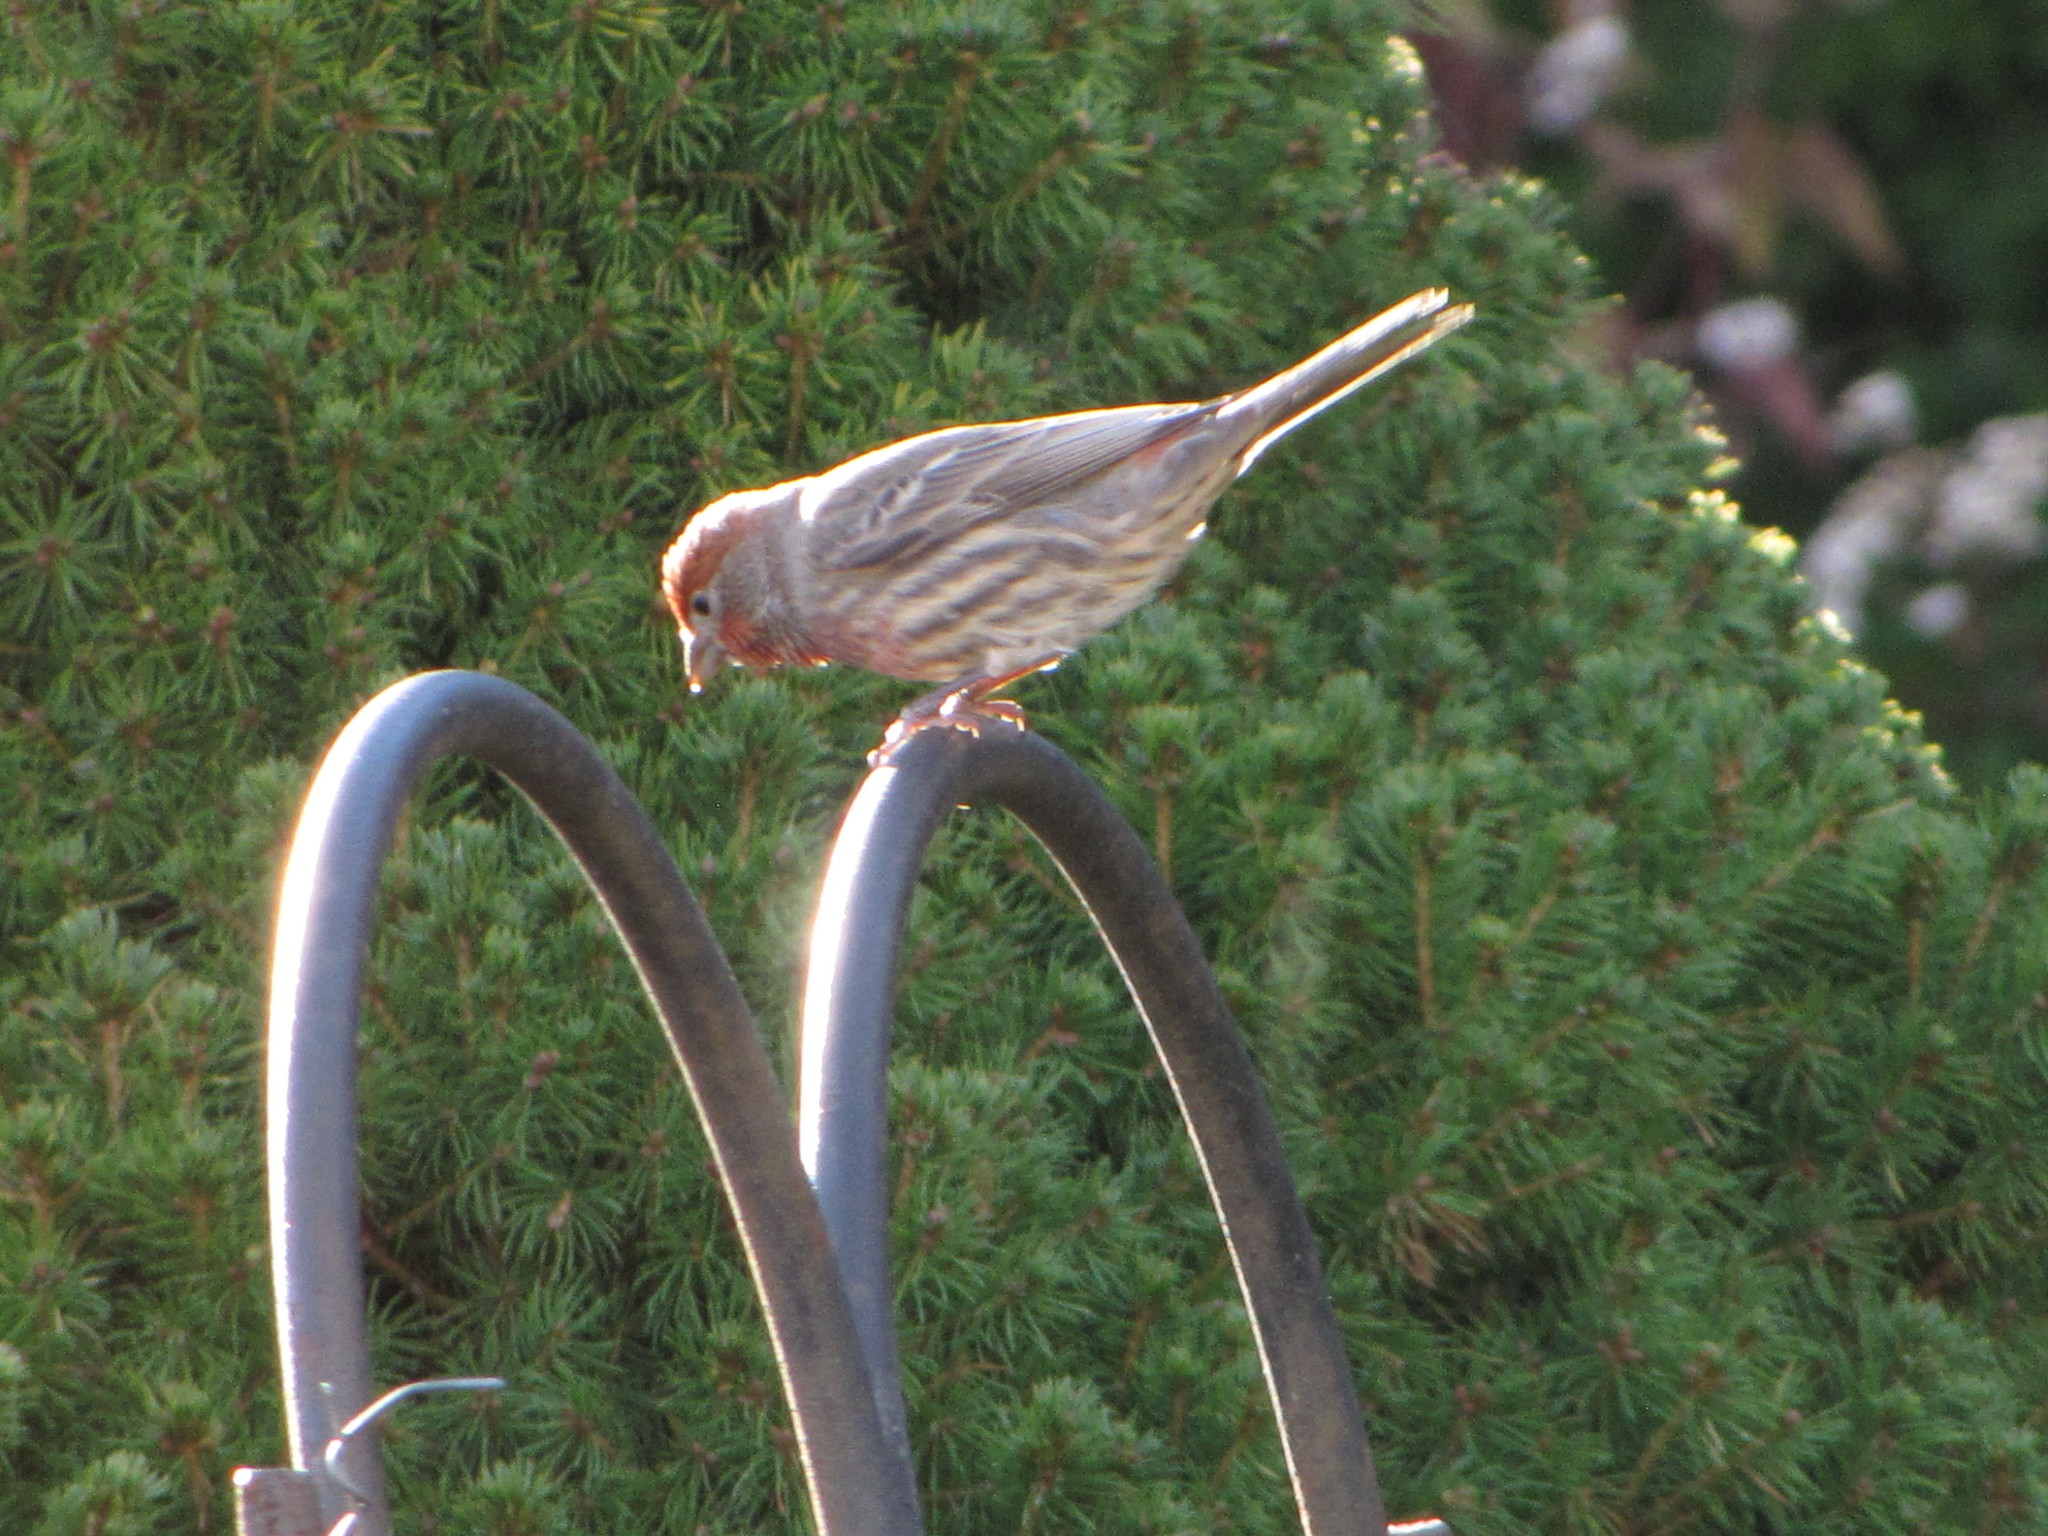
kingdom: Animalia
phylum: Chordata
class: Aves
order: Passeriformes
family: Fringillidae
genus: Haemorhous
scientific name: Haemorhous mexicanus
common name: House finch
